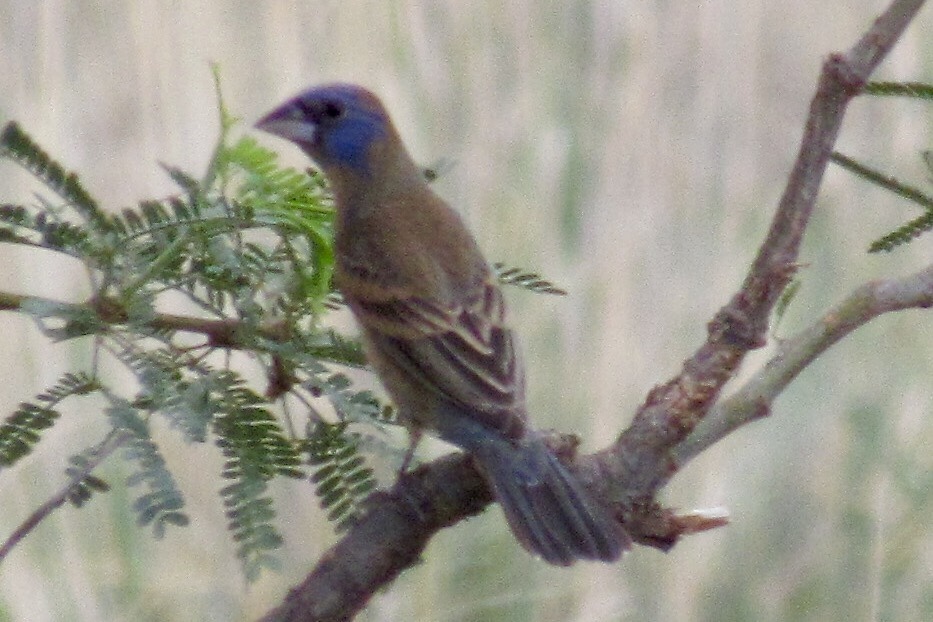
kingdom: Animalia
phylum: Chordata
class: Aves
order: Passeriformes
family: Cardinalidae
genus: Passerina
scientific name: Passerina caerulea
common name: Blue grosbeak
